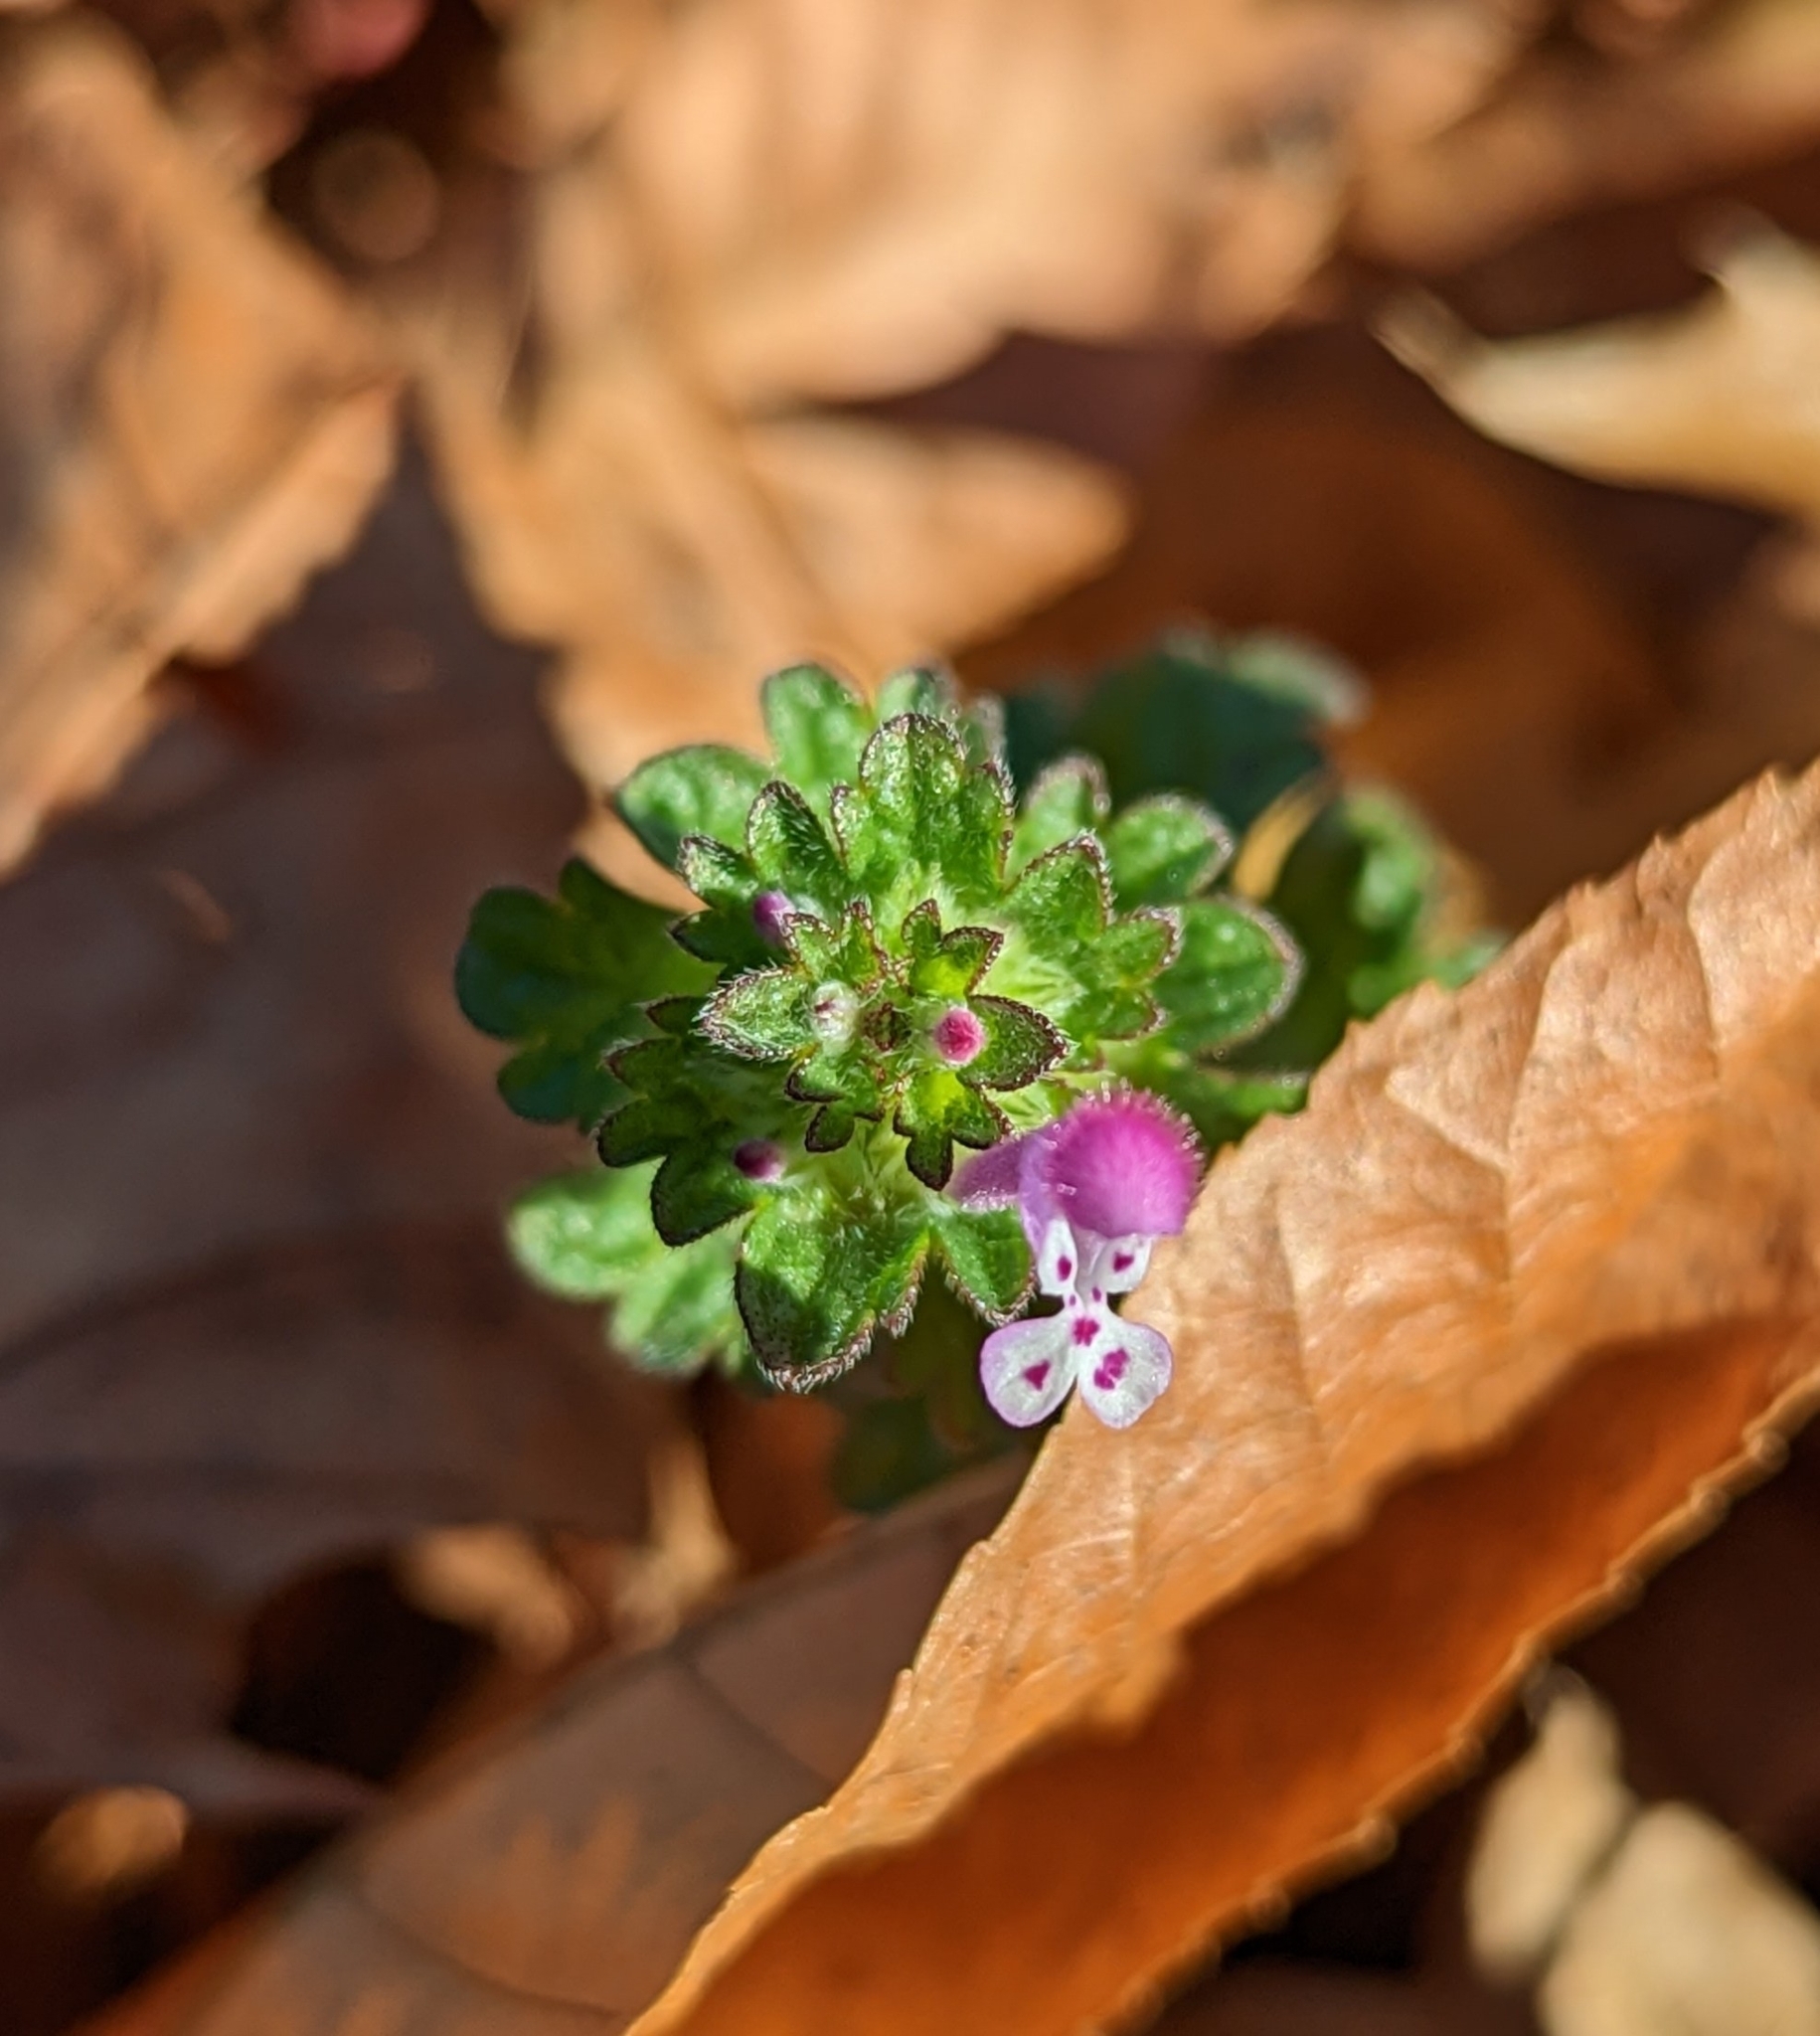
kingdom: Plantae
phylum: Tracheophyta
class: Magnoliopsida
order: Lamiales
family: Lamiaceae
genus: Lamium
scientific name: Lamium amplexicaule
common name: Henbit dead-nettle
